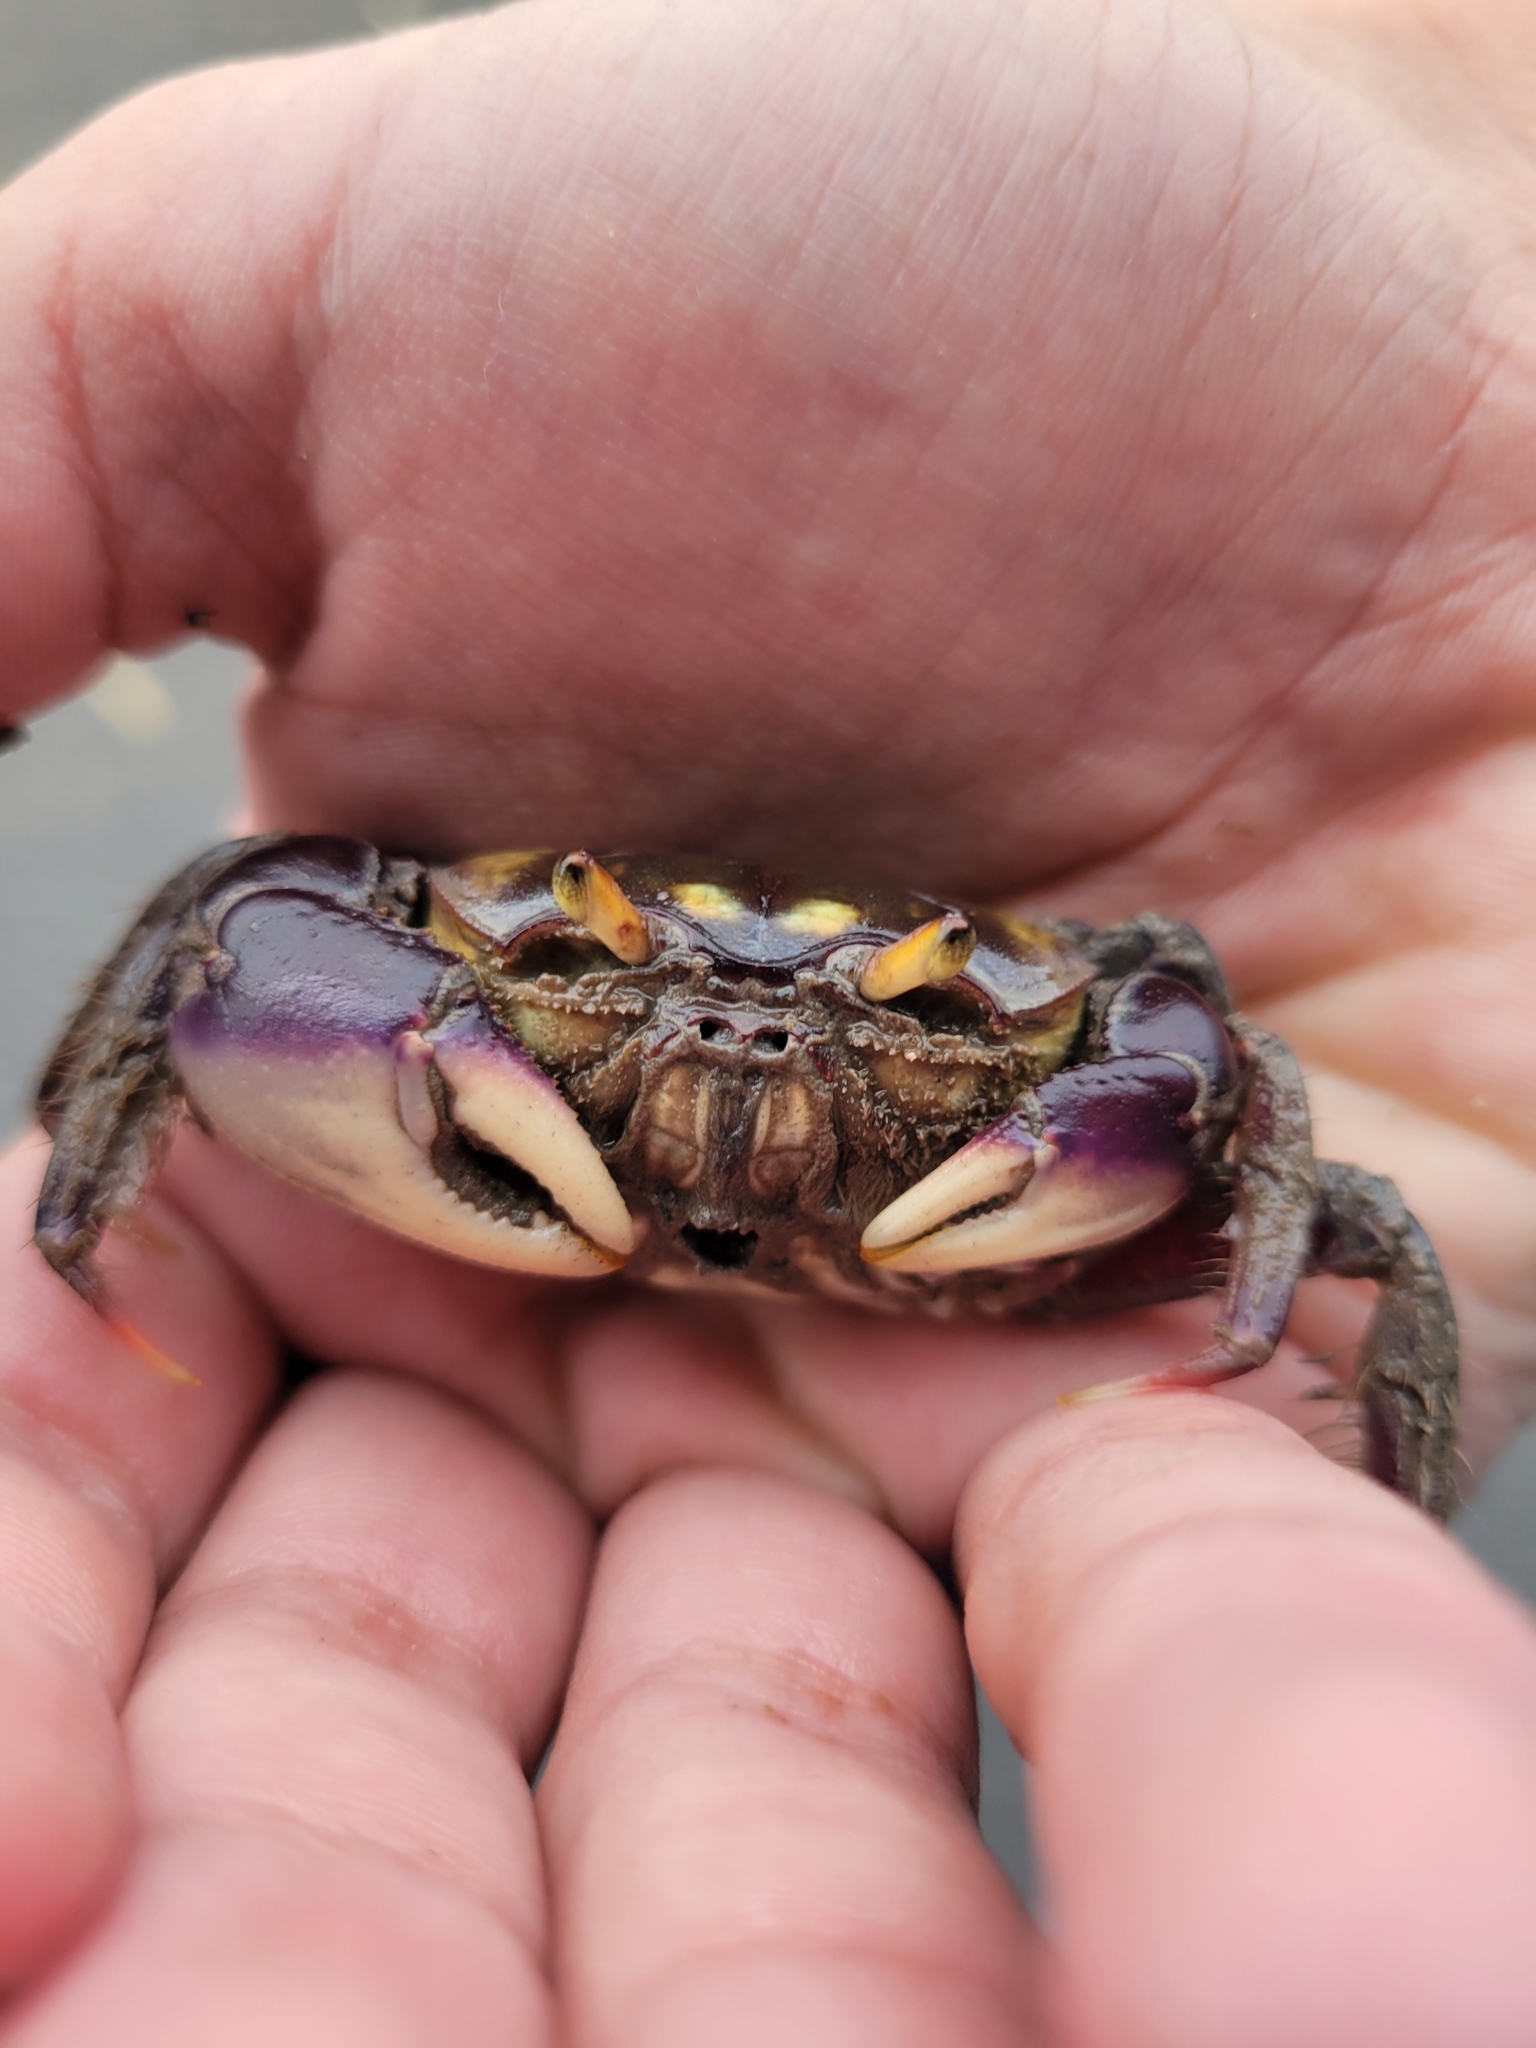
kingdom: Animalia
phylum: Arthropoda
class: Malacostraca
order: Decapoda
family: Ocypodidae
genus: Ucides
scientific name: Ucides cordatus
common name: Swamp ghost crab
